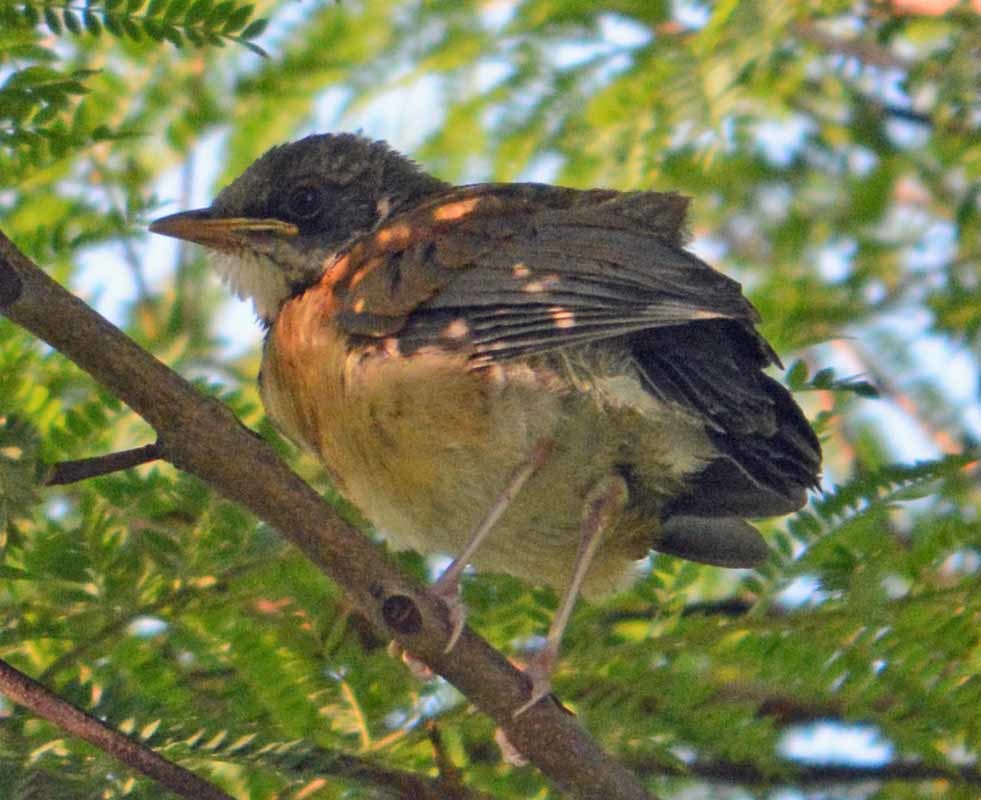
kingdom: Animalia
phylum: Chordata
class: Aves
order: Passeriformes
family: Turdidae
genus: Turdus
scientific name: Turdus rufopalliatus
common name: Rufous-backed robin
